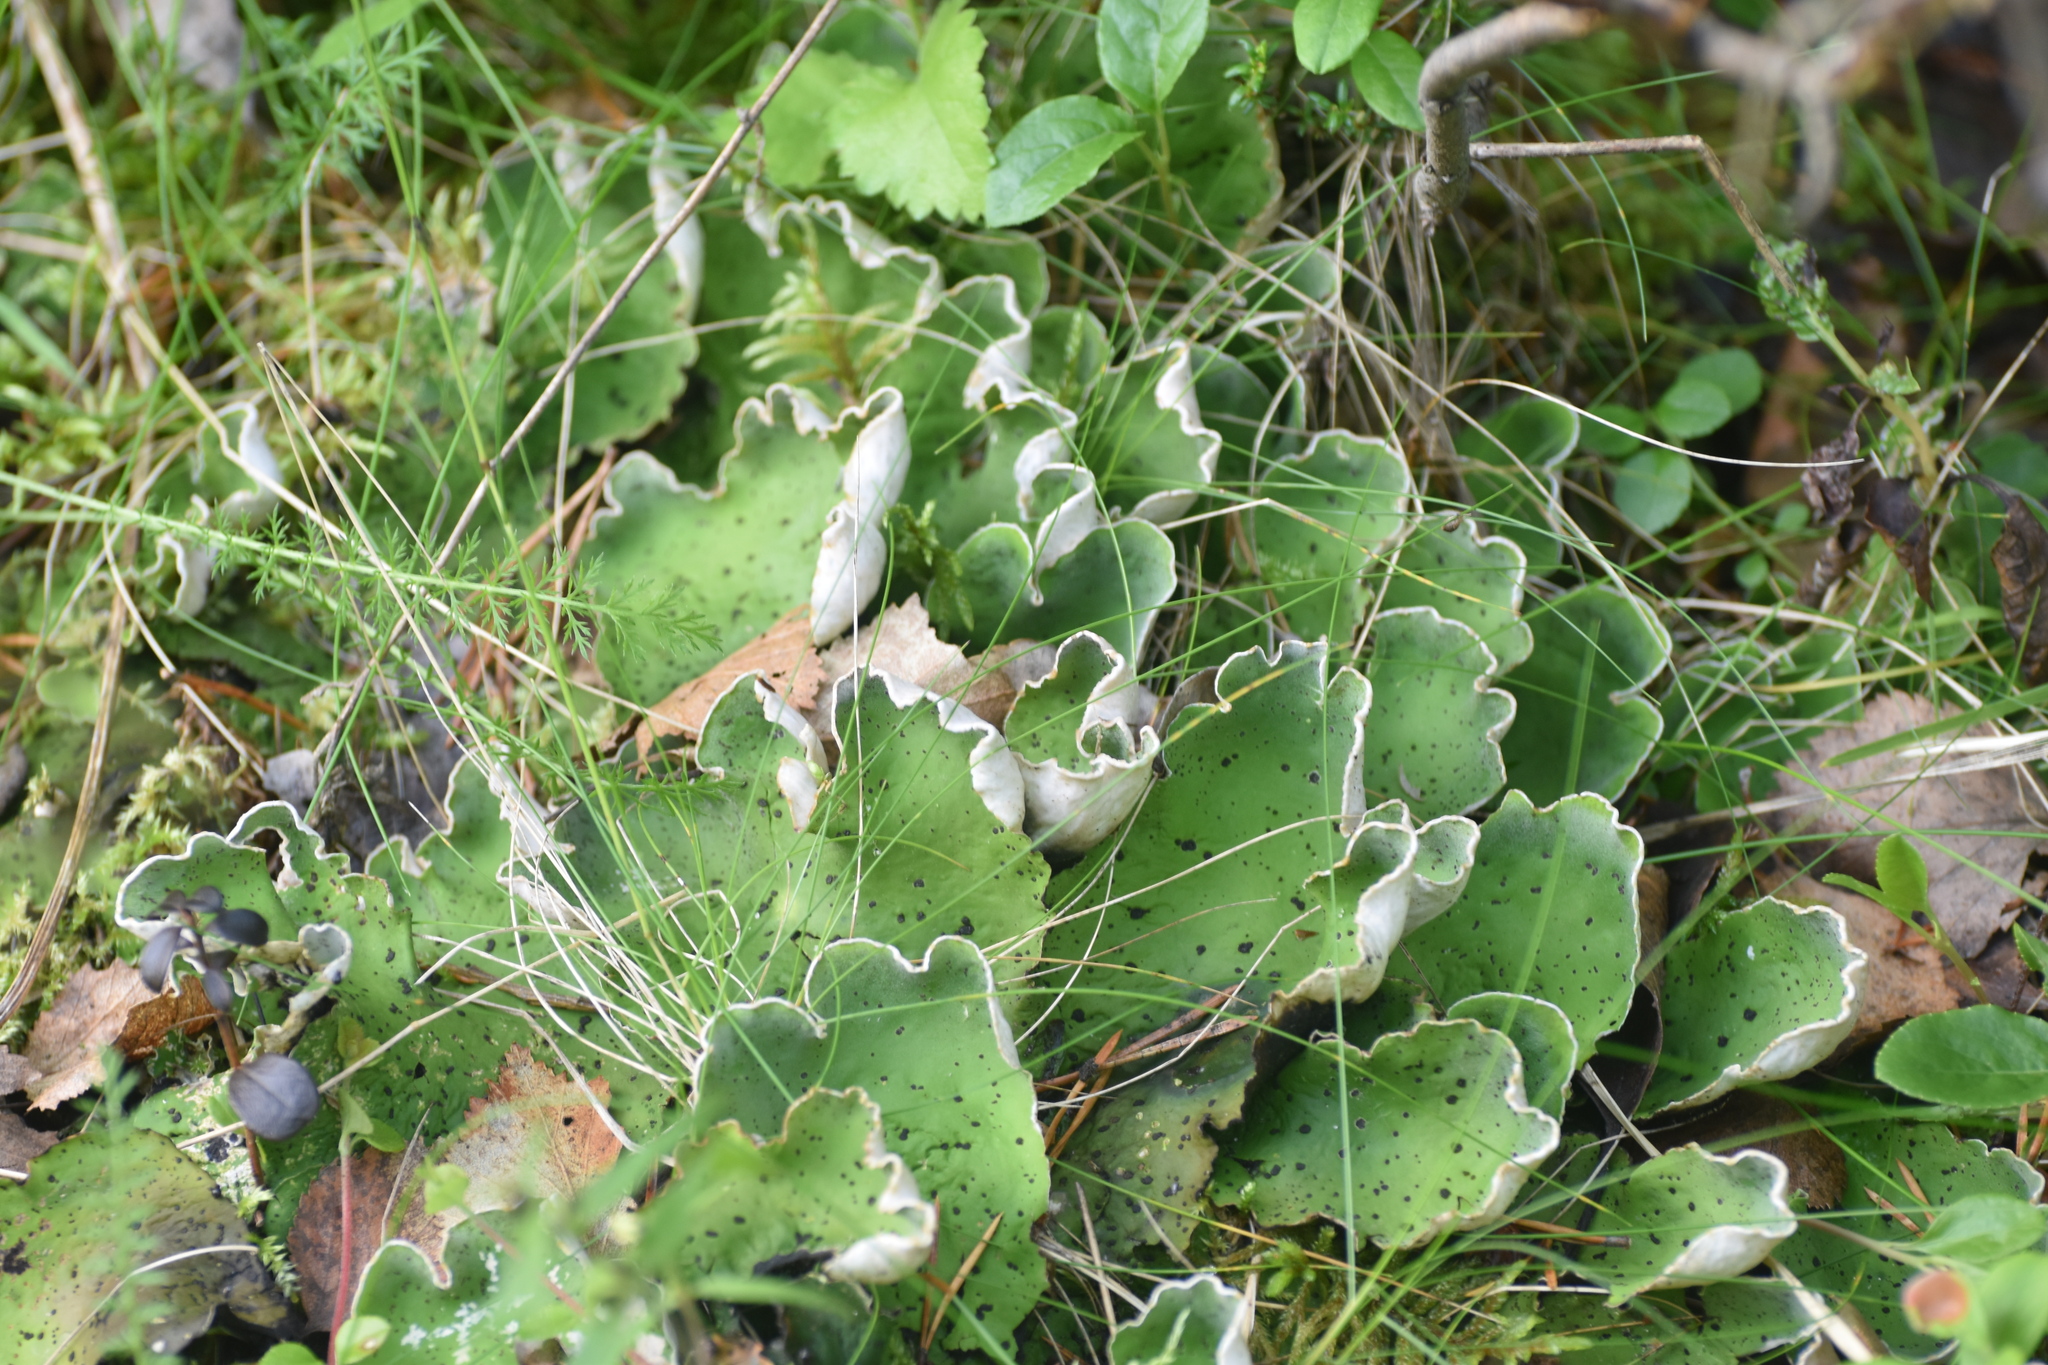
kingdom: Fungi
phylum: Ascomycota
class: Lecanoromycetes
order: Peltigerales
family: Peltigeraceae
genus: Peltigera
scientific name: Peltigera aphthosa
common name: Common freckle pelt lichen
